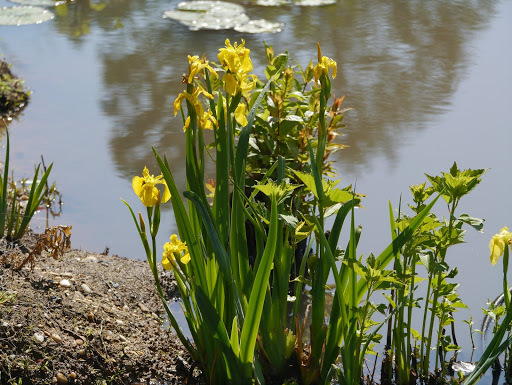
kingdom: Plantae
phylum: Tracheophyta
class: Liliopsida
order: Asparagales
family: Iridaceae
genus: Iris
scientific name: Iris pseudacorus
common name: Yellow flag
